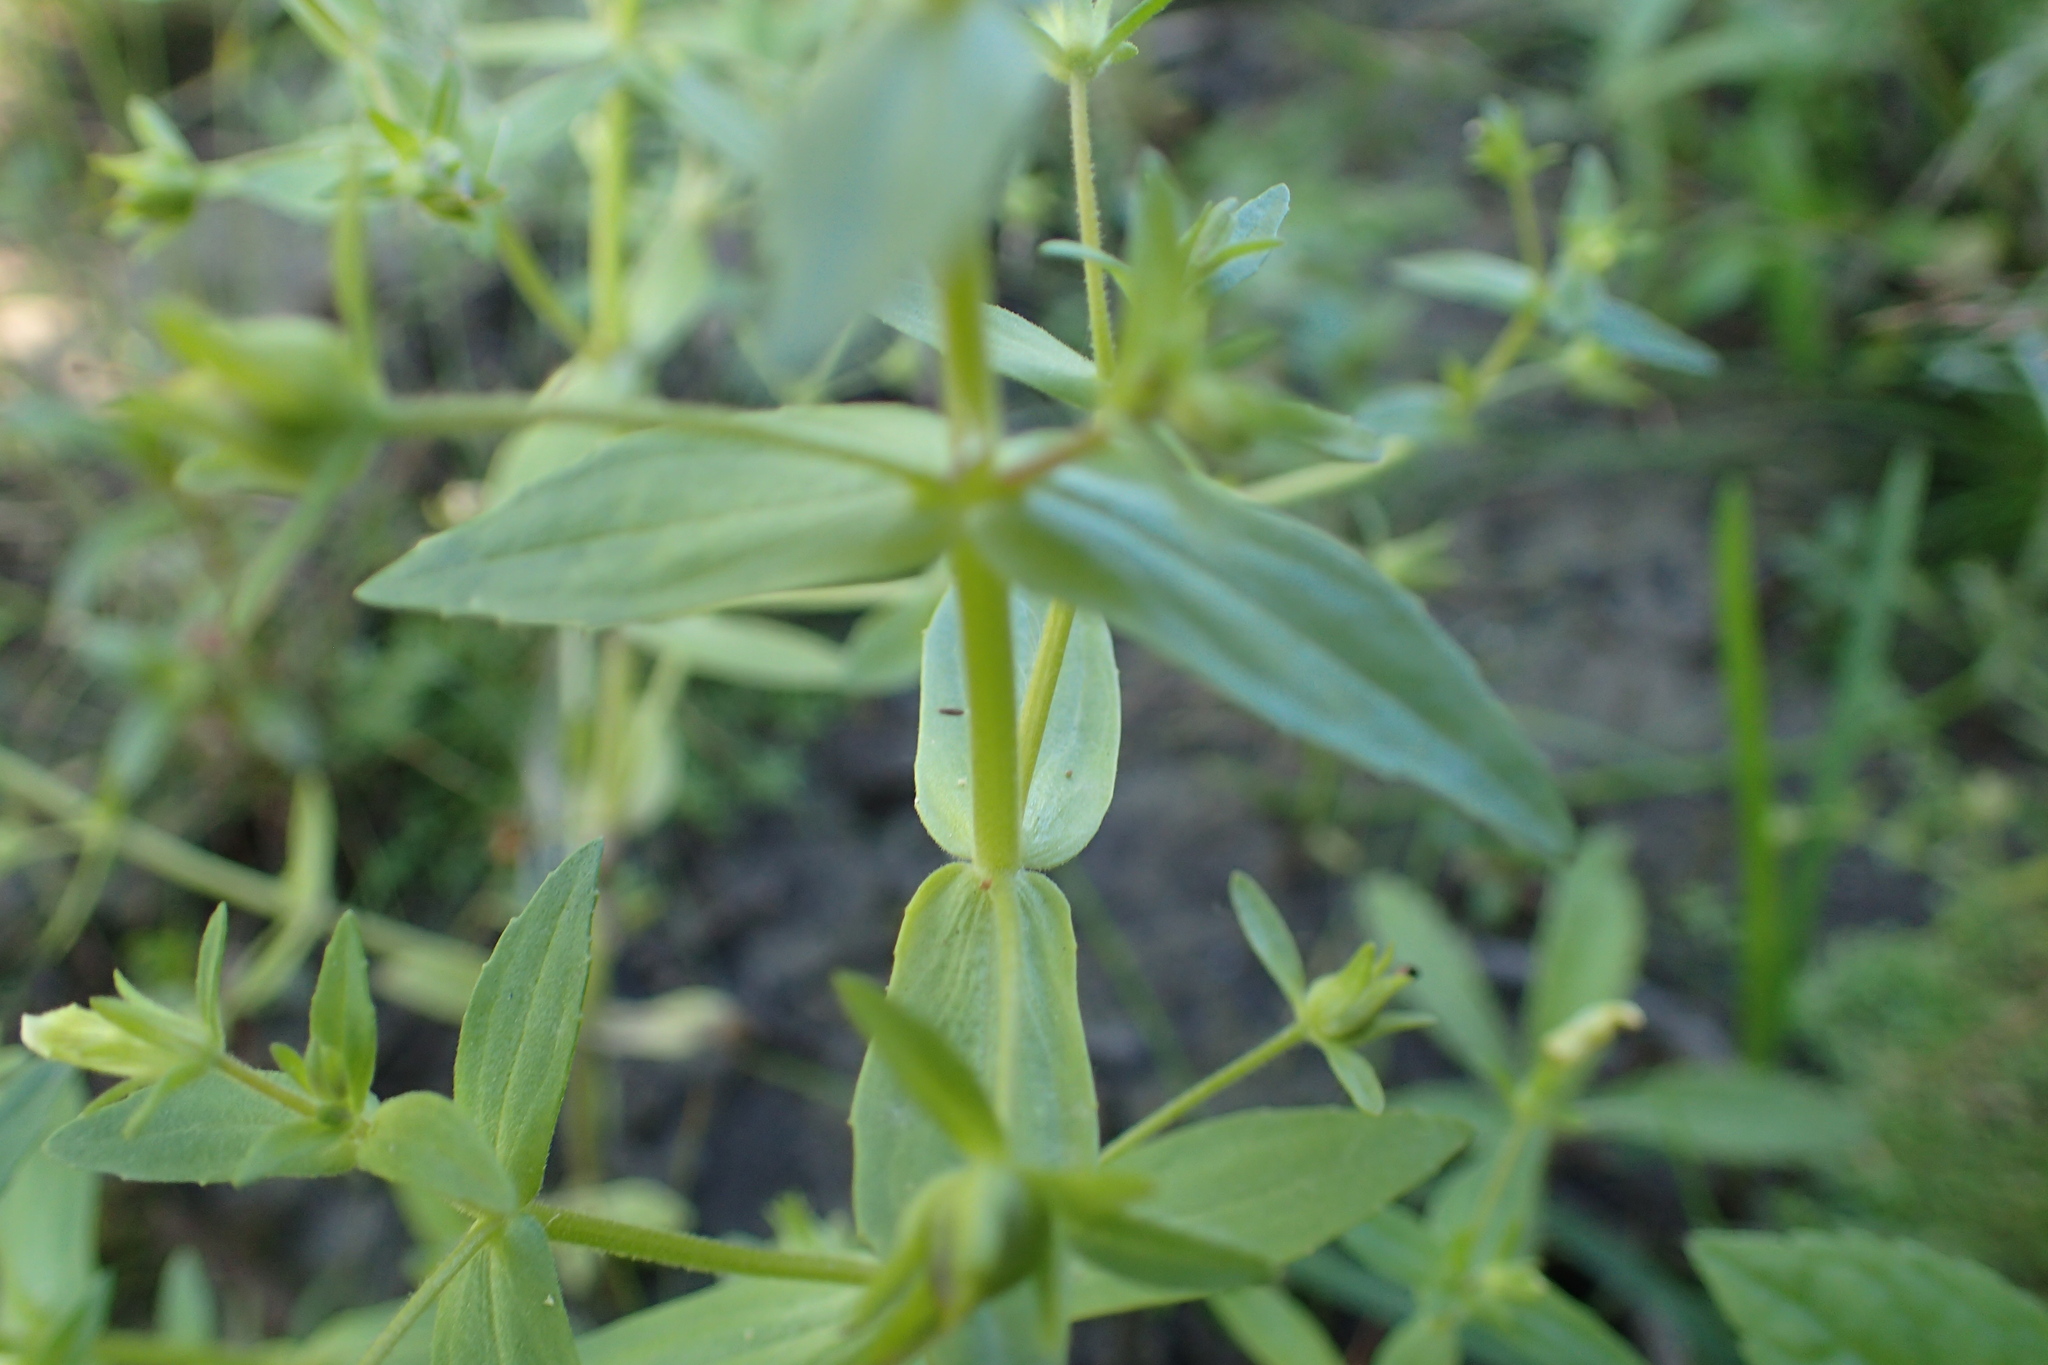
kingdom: Plantae
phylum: Tracheophyta
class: Magnoliopsida
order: Lamiales
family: Plantaginaceae
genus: Gratiola
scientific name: Gratiola neglecta
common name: American hedge-hyssop
